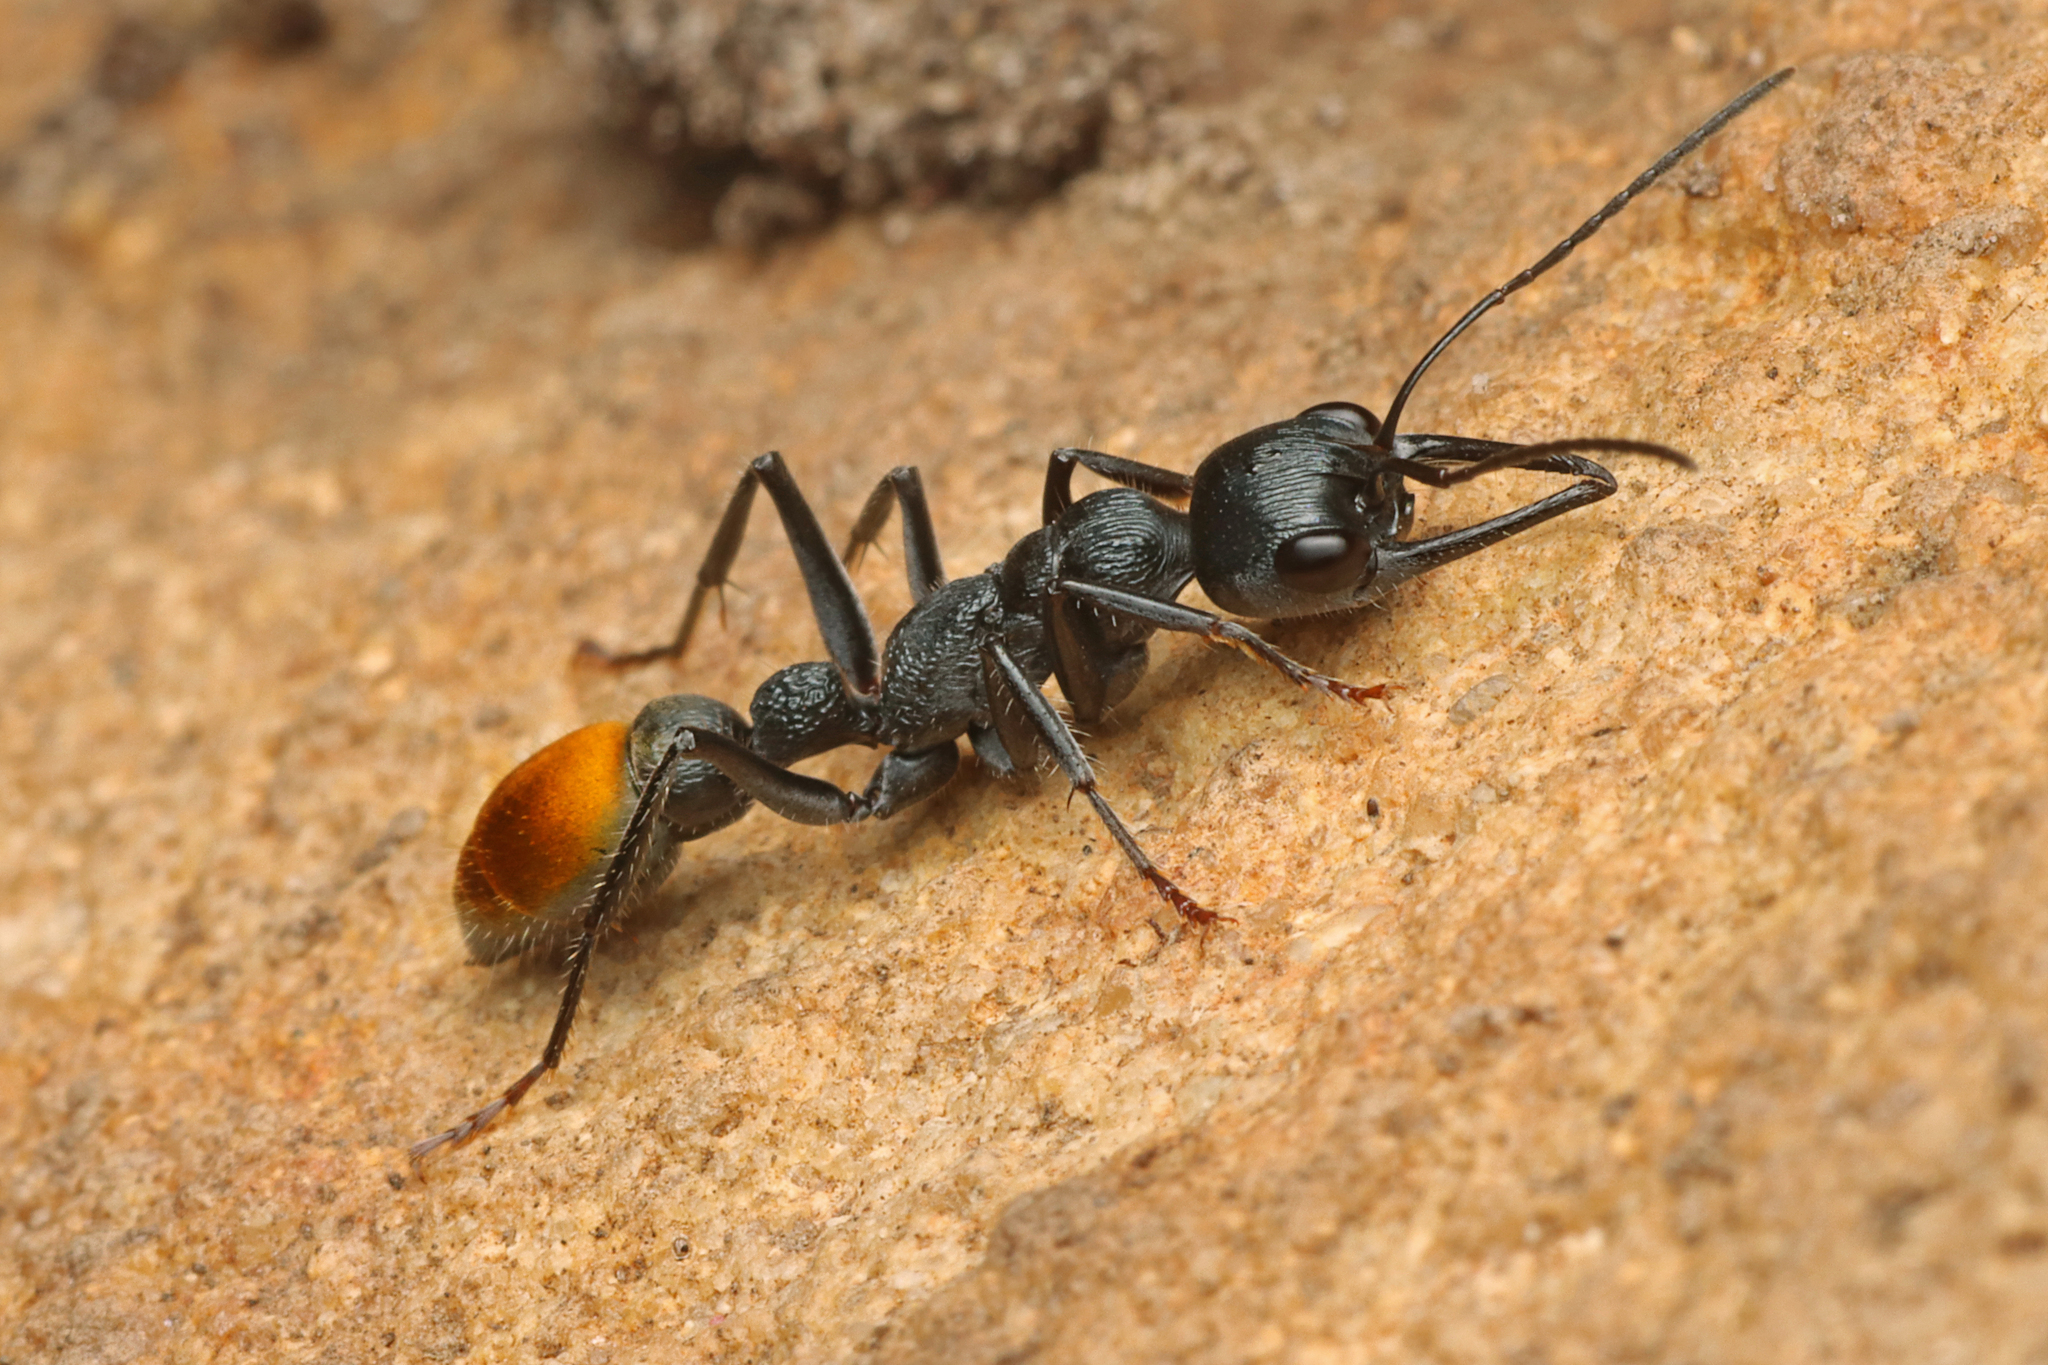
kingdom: Animalia
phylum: Arthropoda
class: Insecta
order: Hymenoptera
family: Formicidae
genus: Myrmecia
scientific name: Myrmecia mandibularis
